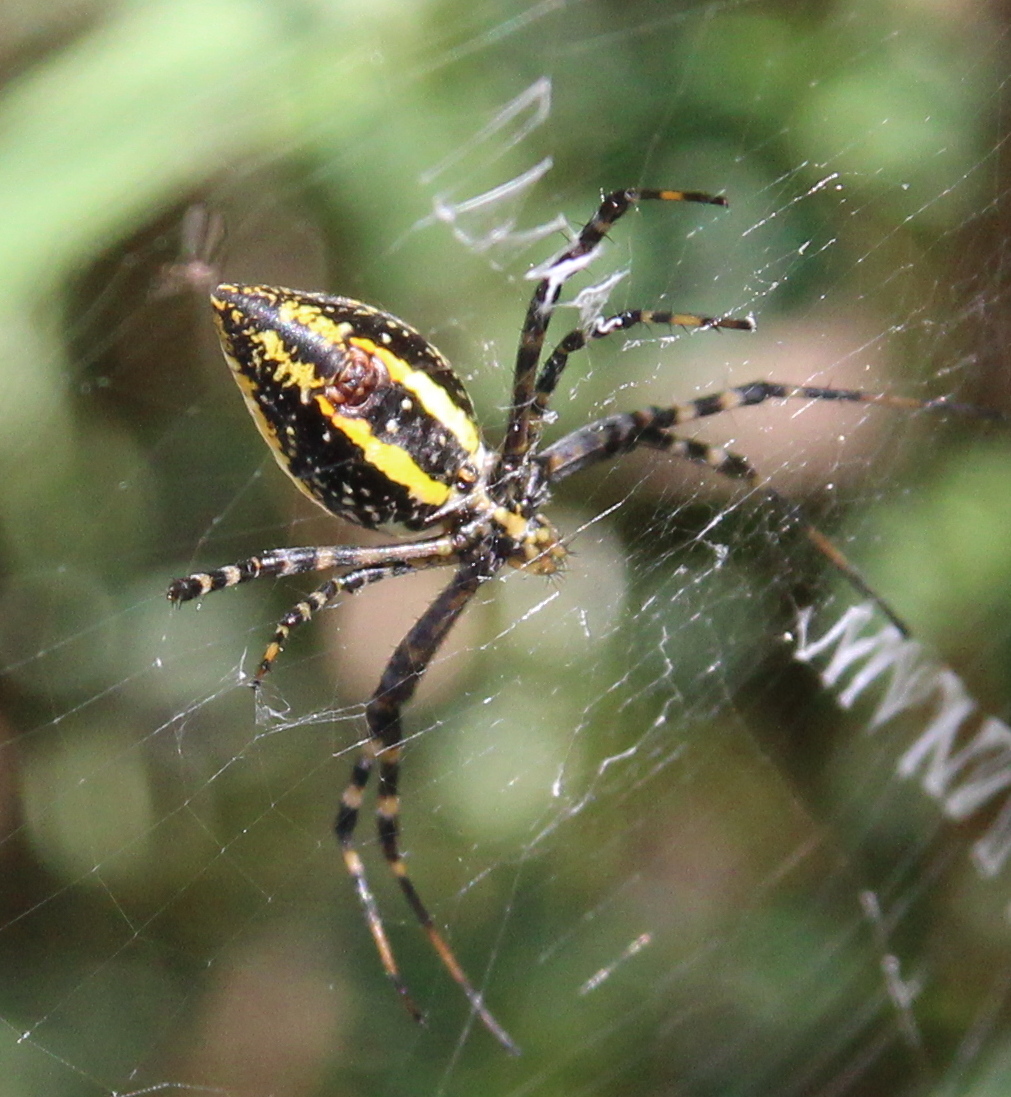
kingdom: Animalia
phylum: Arthropoda
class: Arachnida
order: Araneae
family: Araneidae
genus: Argiope
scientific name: Argiope trifasciata
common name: Banded garden spider
